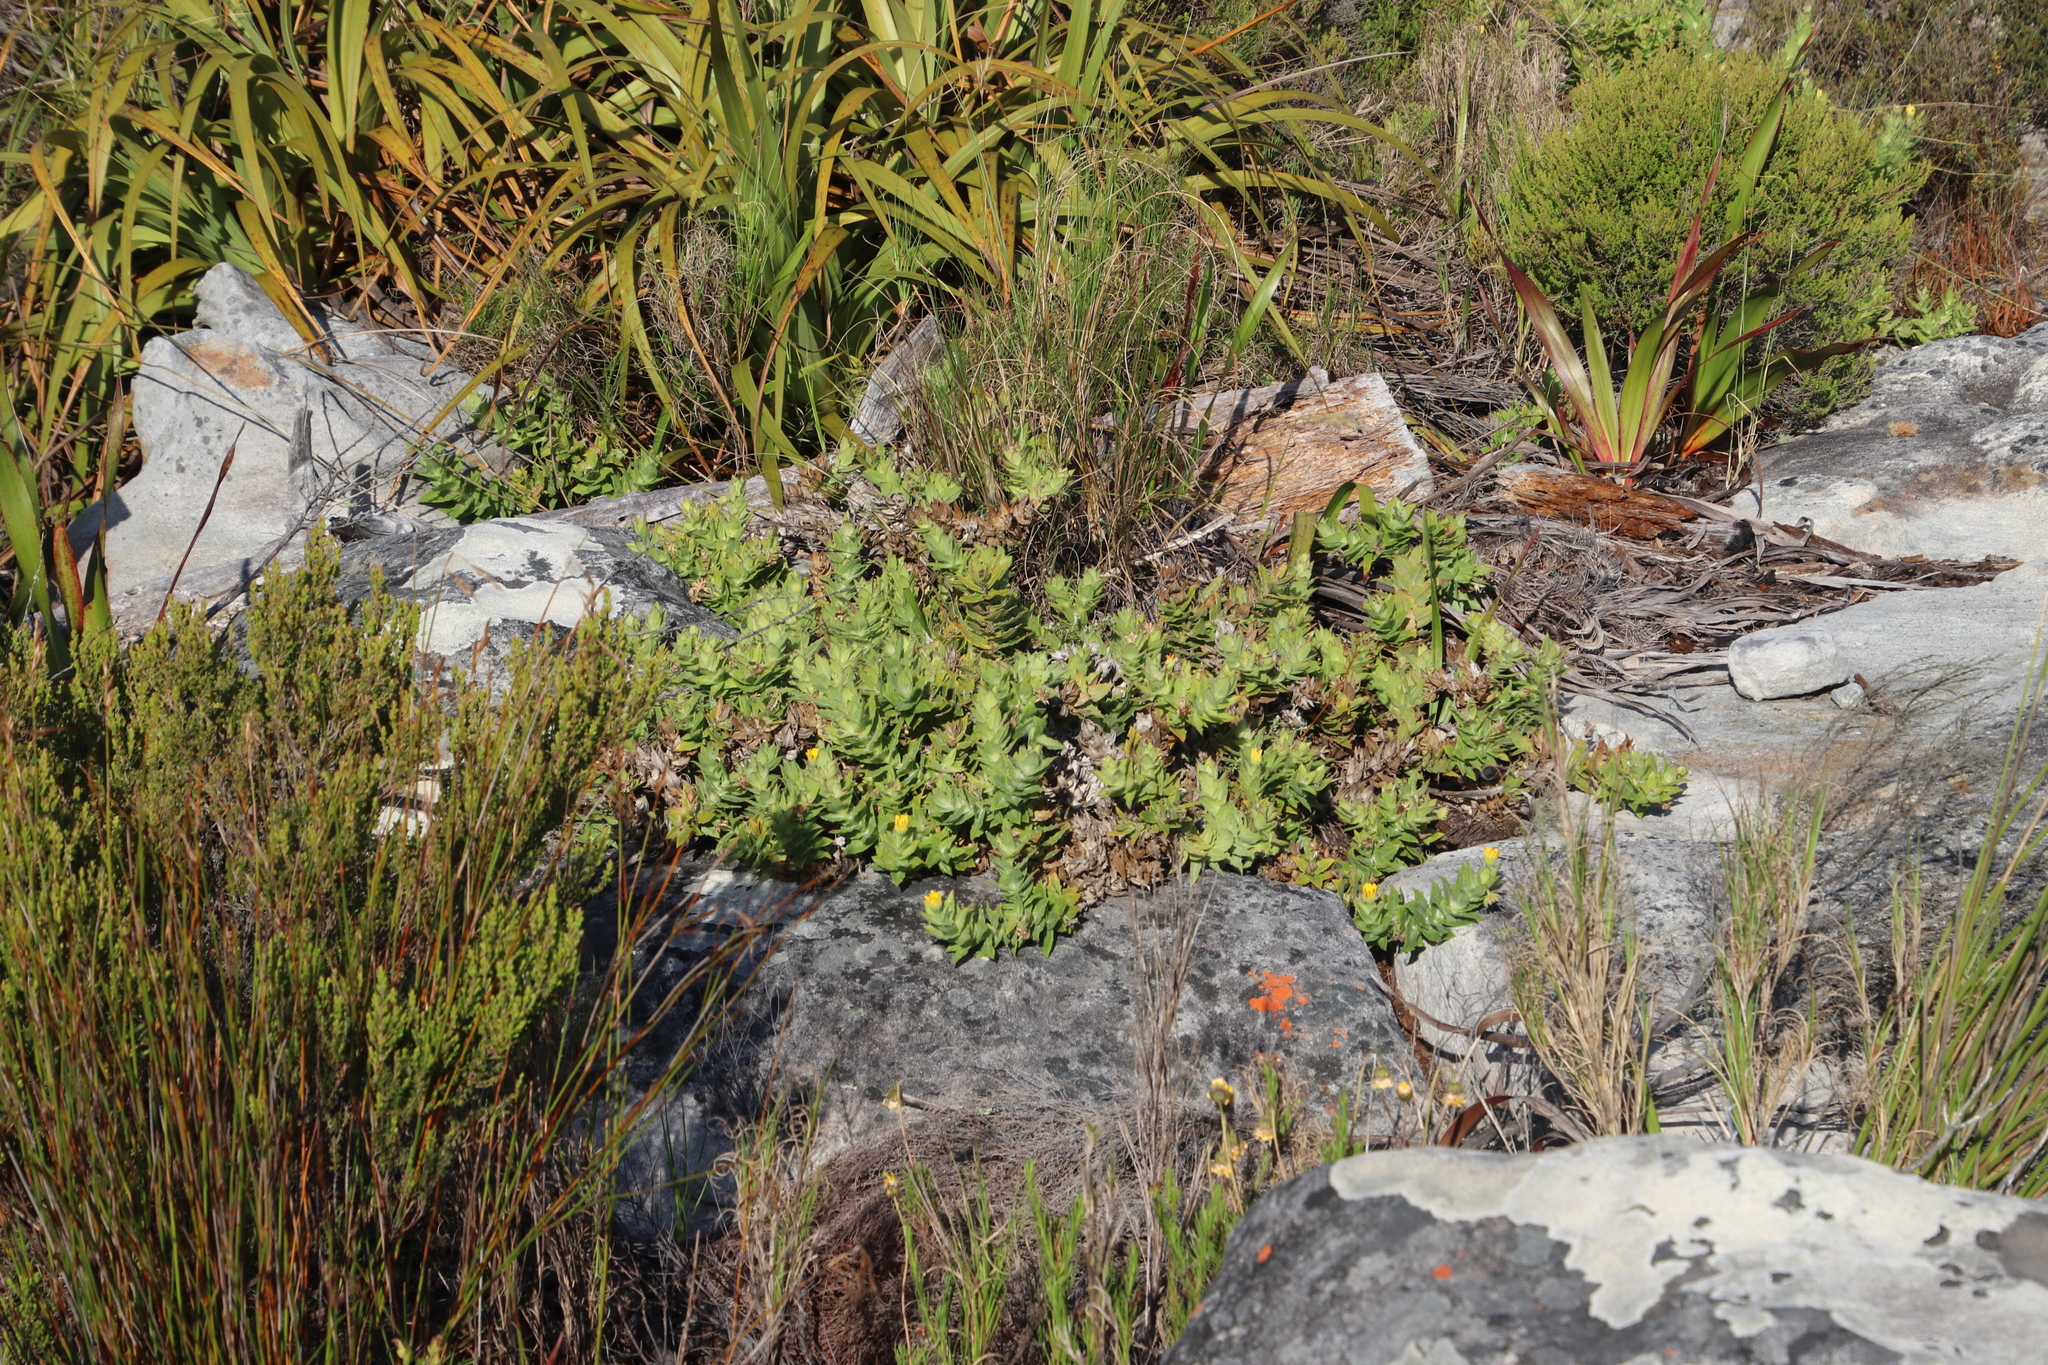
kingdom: Plantae
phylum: Tracheophyta
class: Magnoliopsida
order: Asterales
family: Asteraceae
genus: Osteospermum
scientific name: Osteospermum ilicifolium
